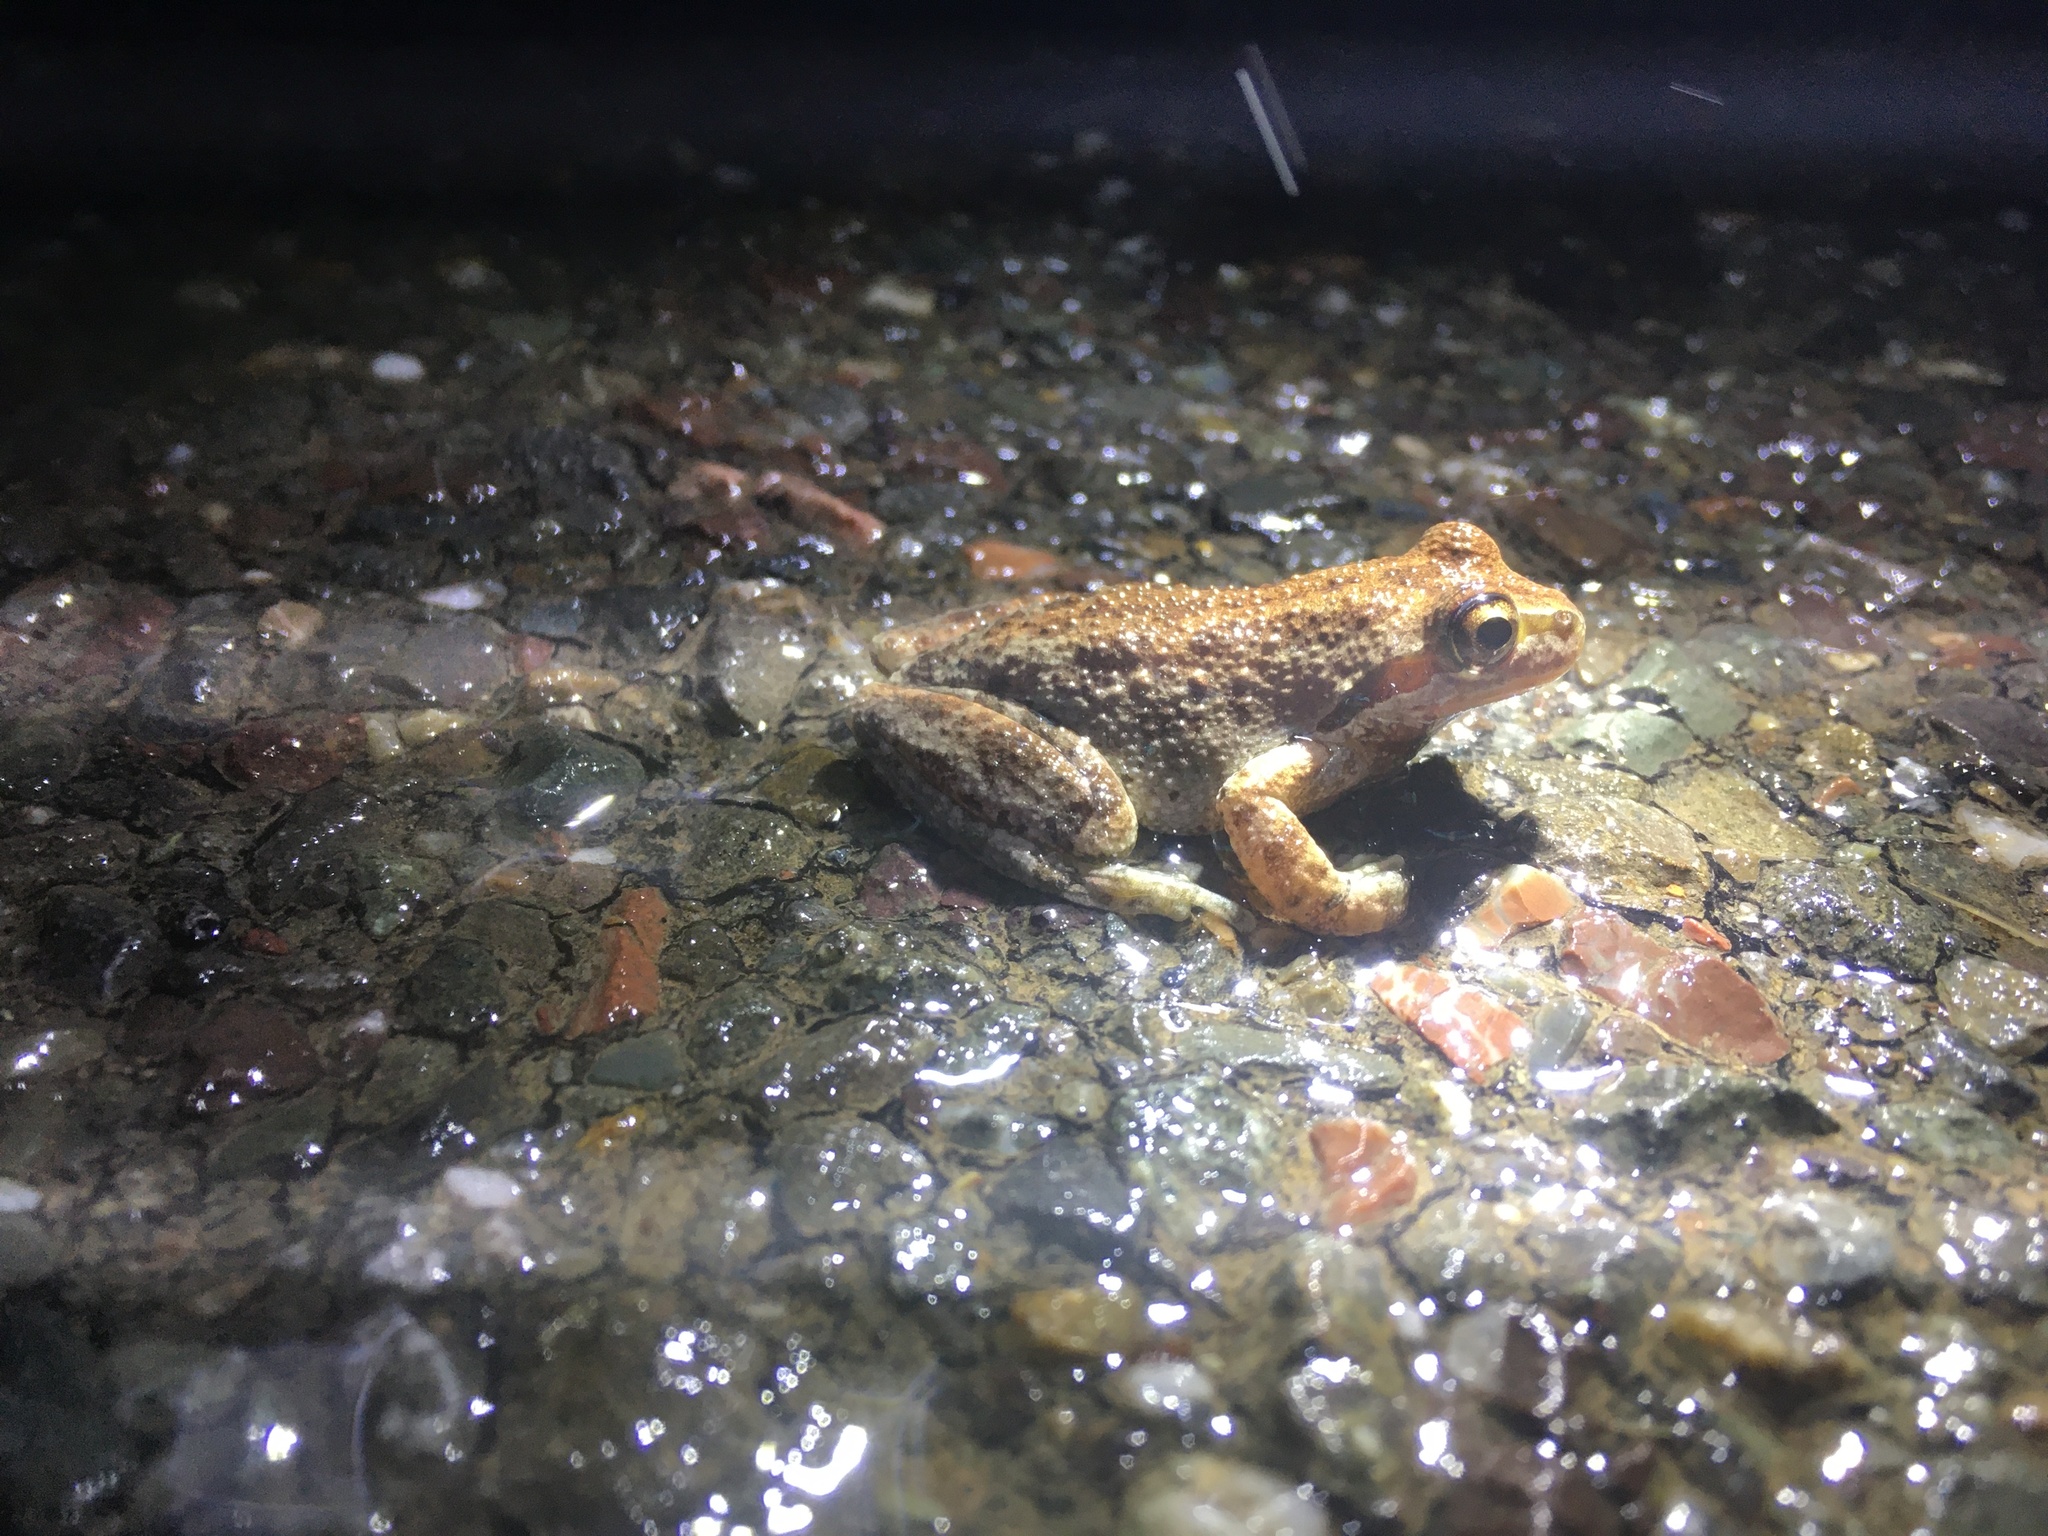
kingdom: Animalia
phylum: Chordata
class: Amphibia
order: Anura
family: Hylidae
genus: Pseudacris
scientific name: Pseudacris regilla
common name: Pacific chorus frog
